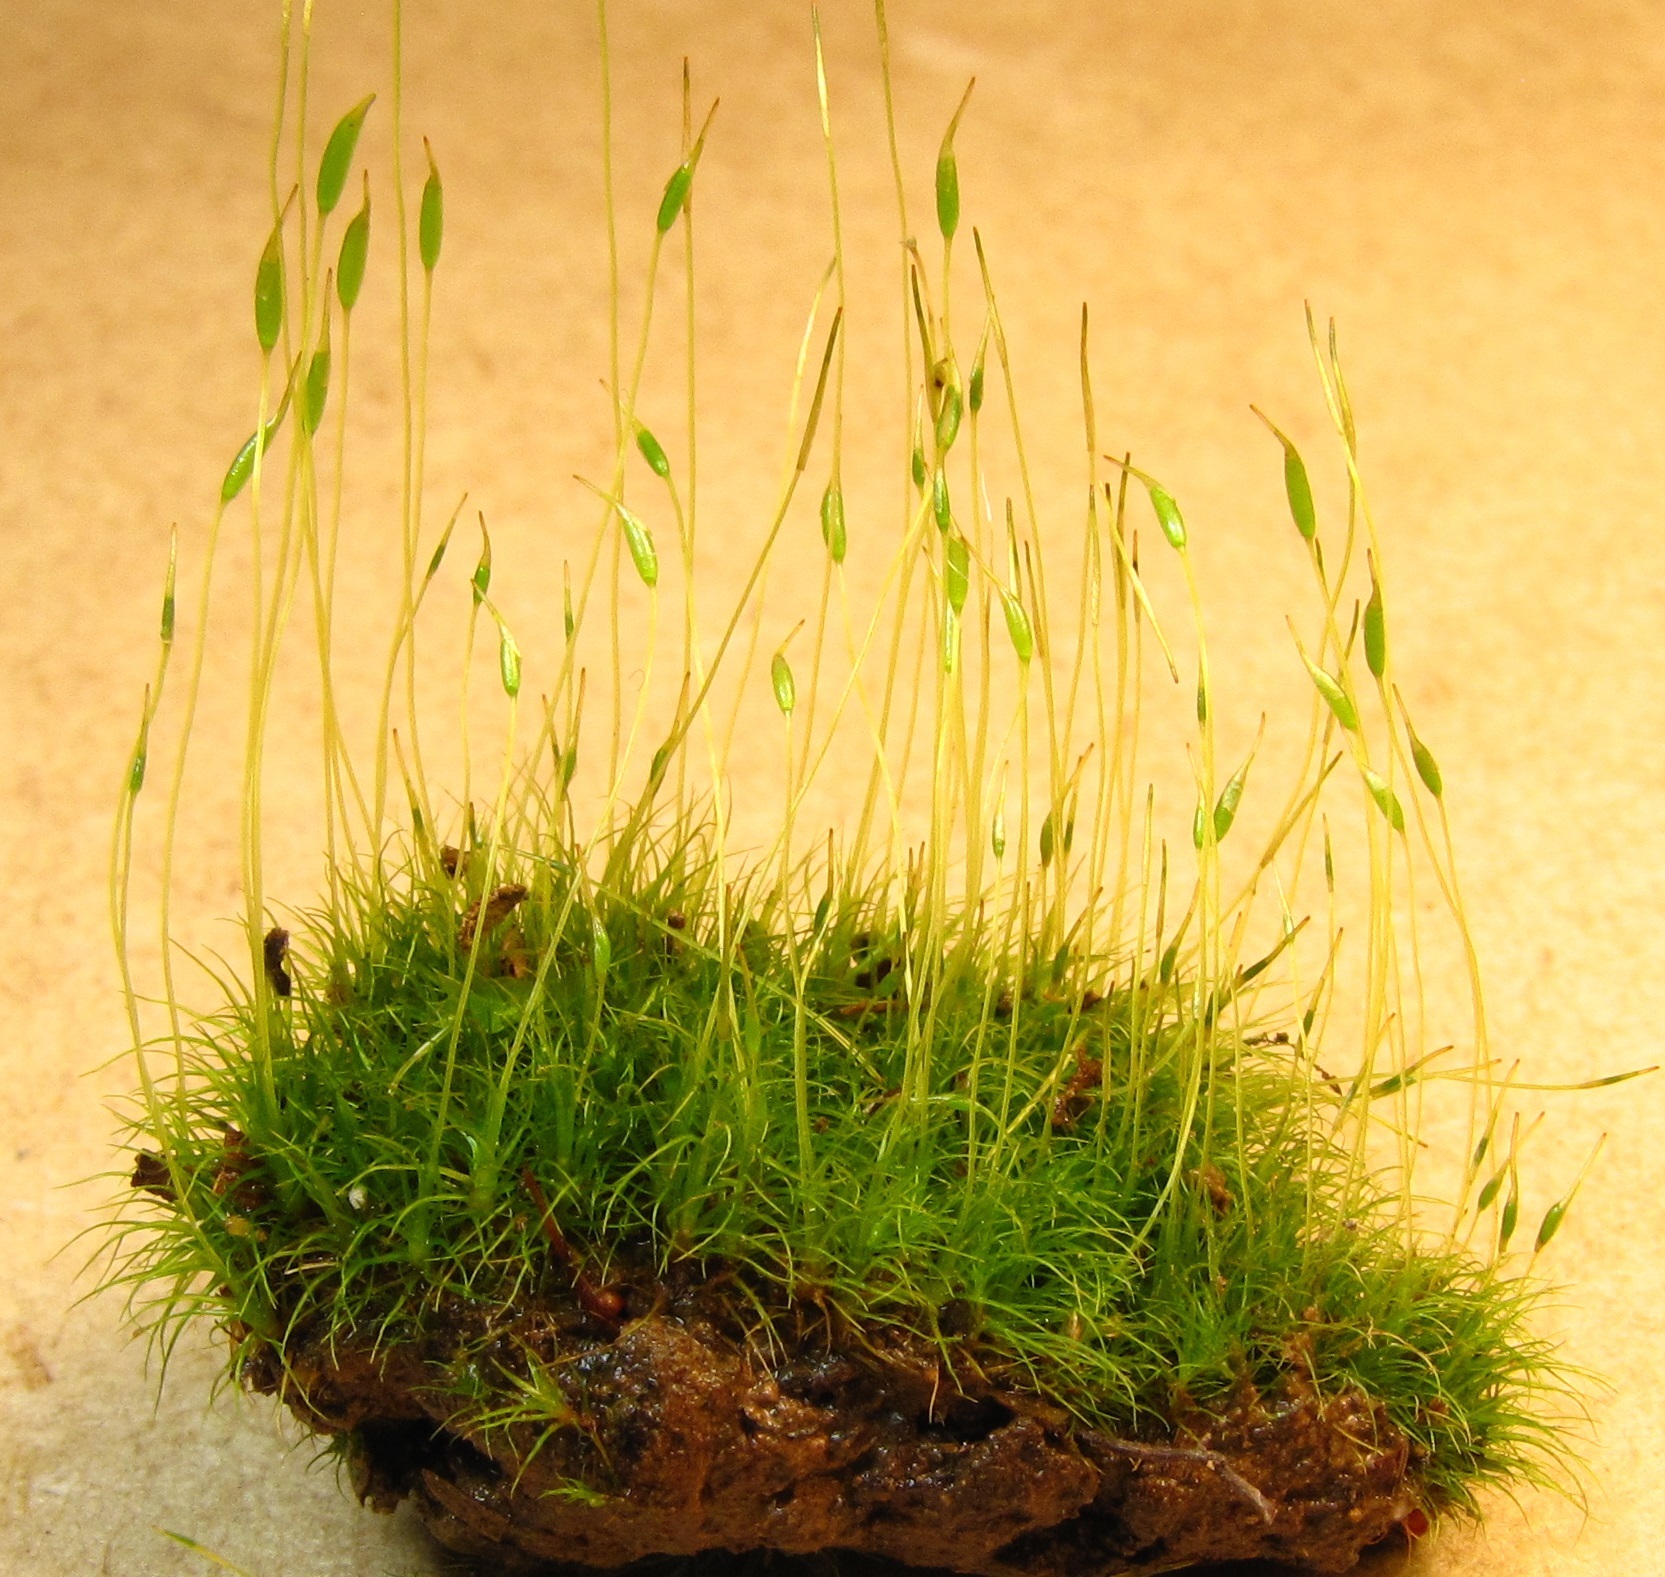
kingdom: Plantae
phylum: Bryophyta
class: Bryopsida
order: Dicranales
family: Ditrichaceae
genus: Ditrichum
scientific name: Ditrichum pallidum
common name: Pale cow-hair moss
